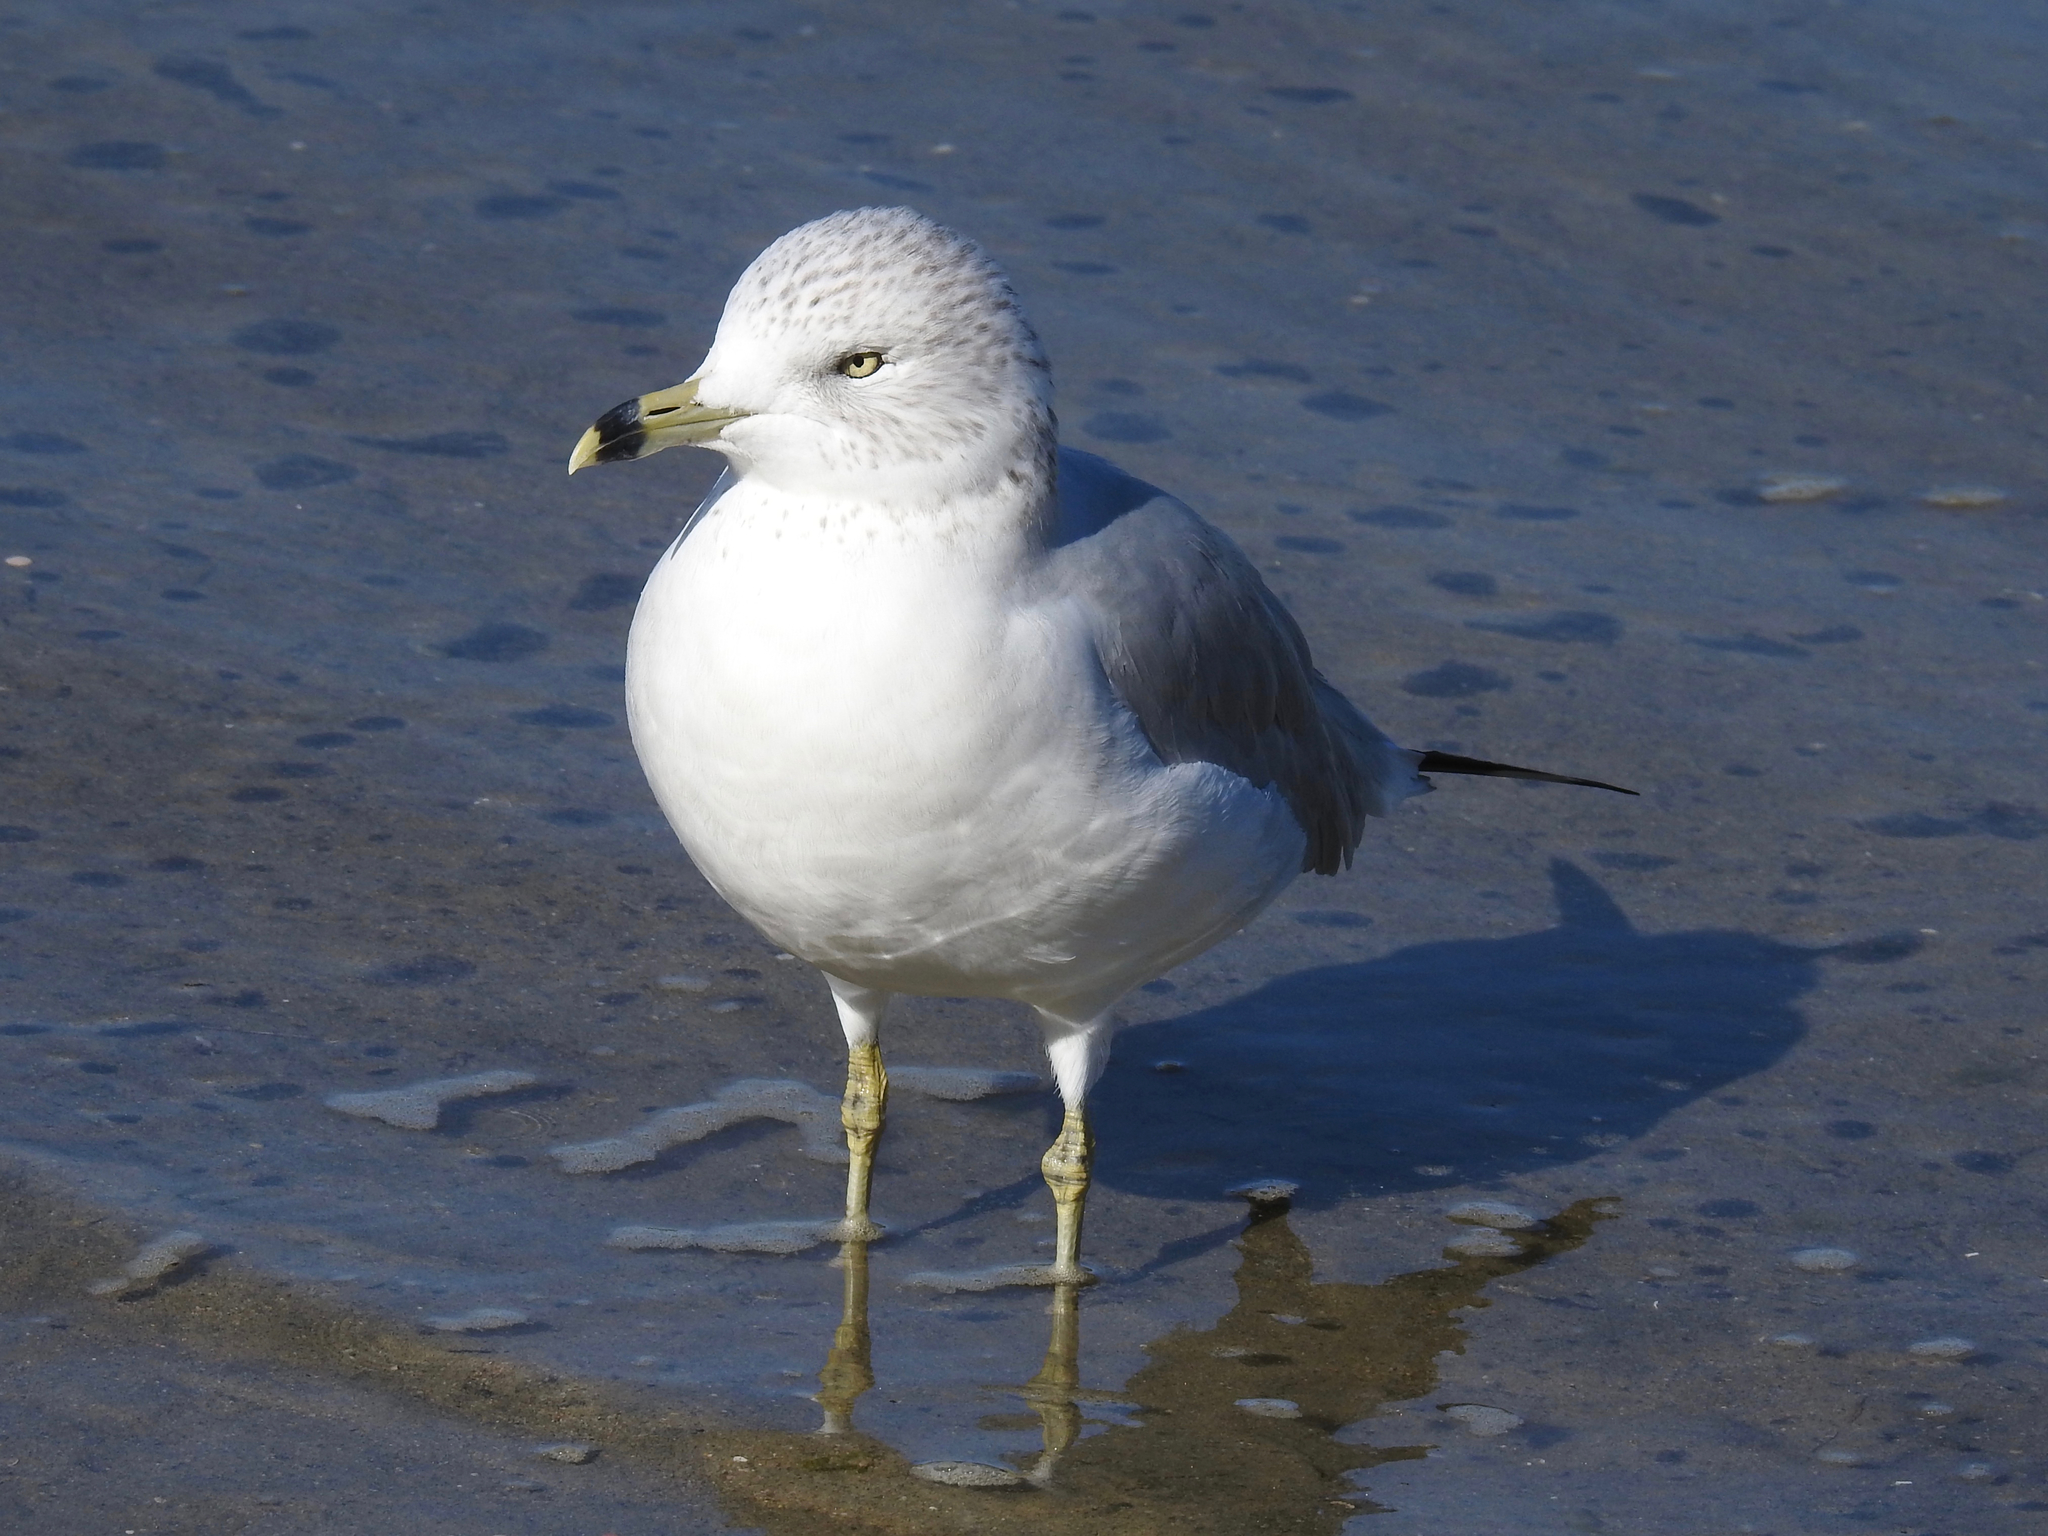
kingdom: Animalia
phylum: Chordata
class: Aves
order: Charadriiformes
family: Laridae
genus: Larus
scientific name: Larus delawarensis
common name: Ring-billed gull
